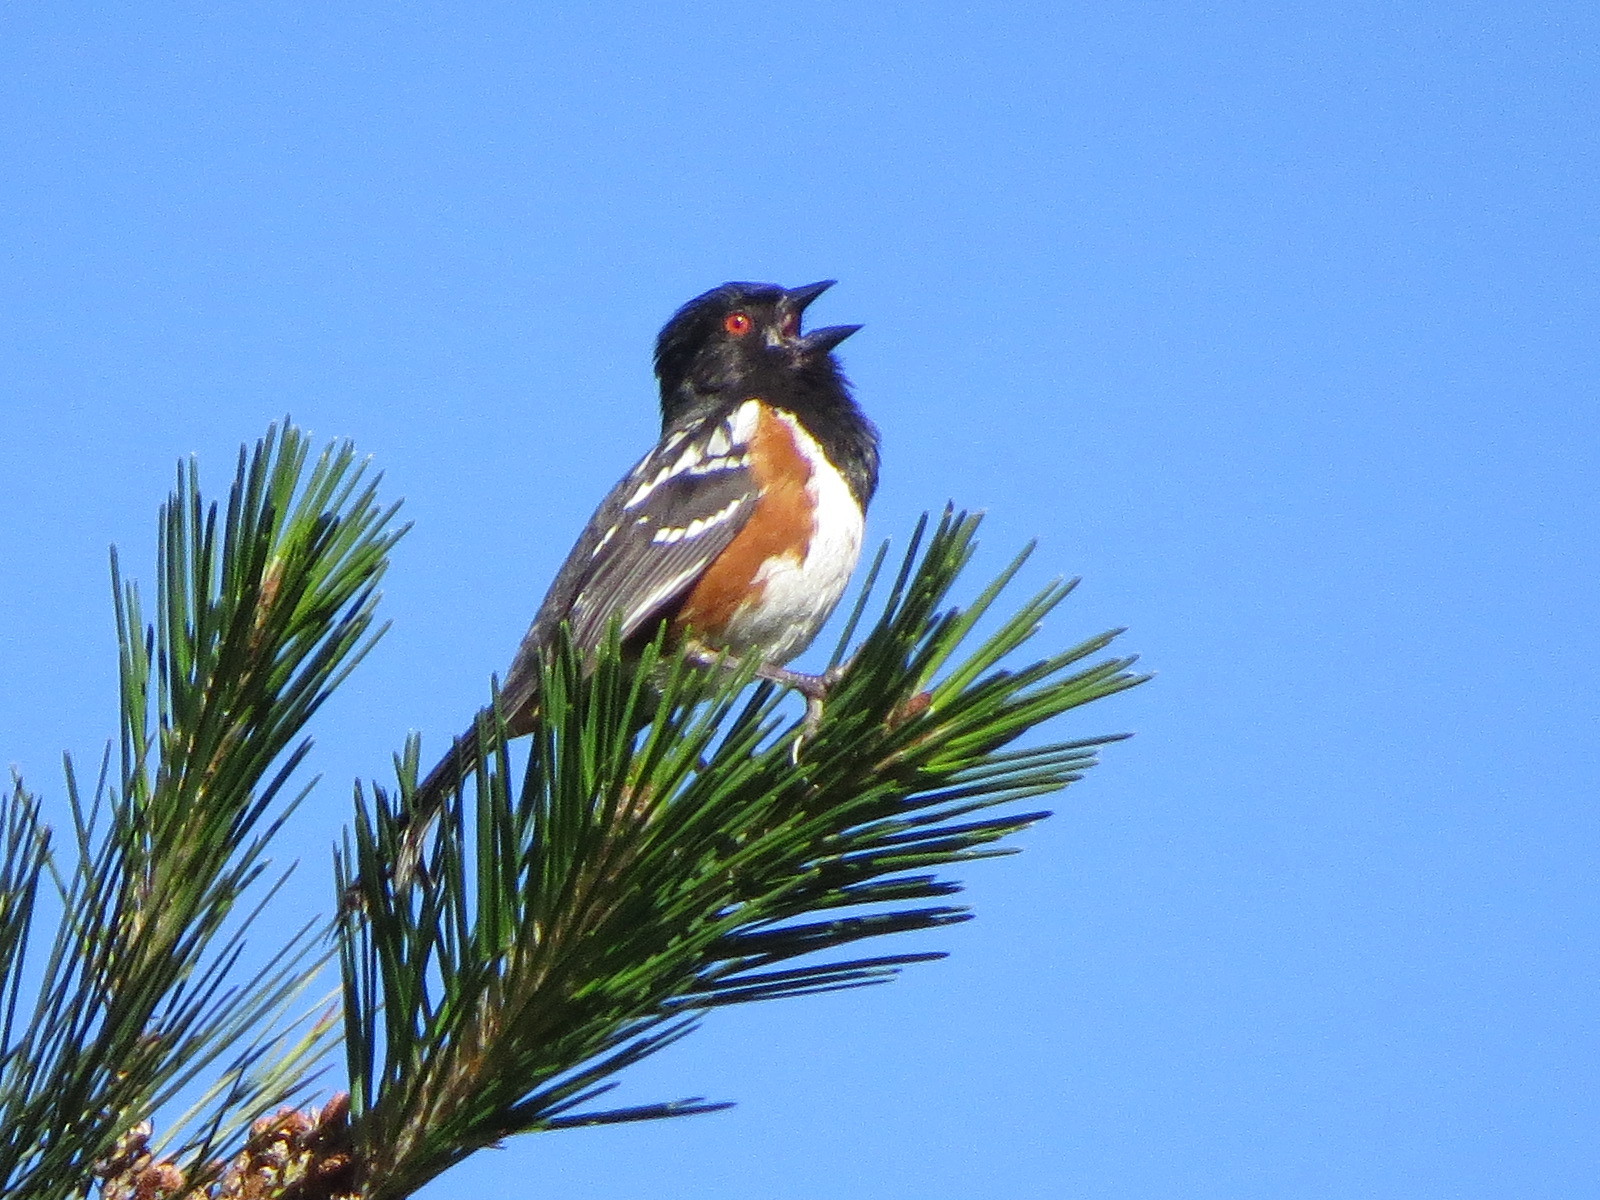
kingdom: Animalia
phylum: Chordata
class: Aves
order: Passeriformes
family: Passerellidae
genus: Pipilo
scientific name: Pipilo maculatus
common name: Spotted towhee
